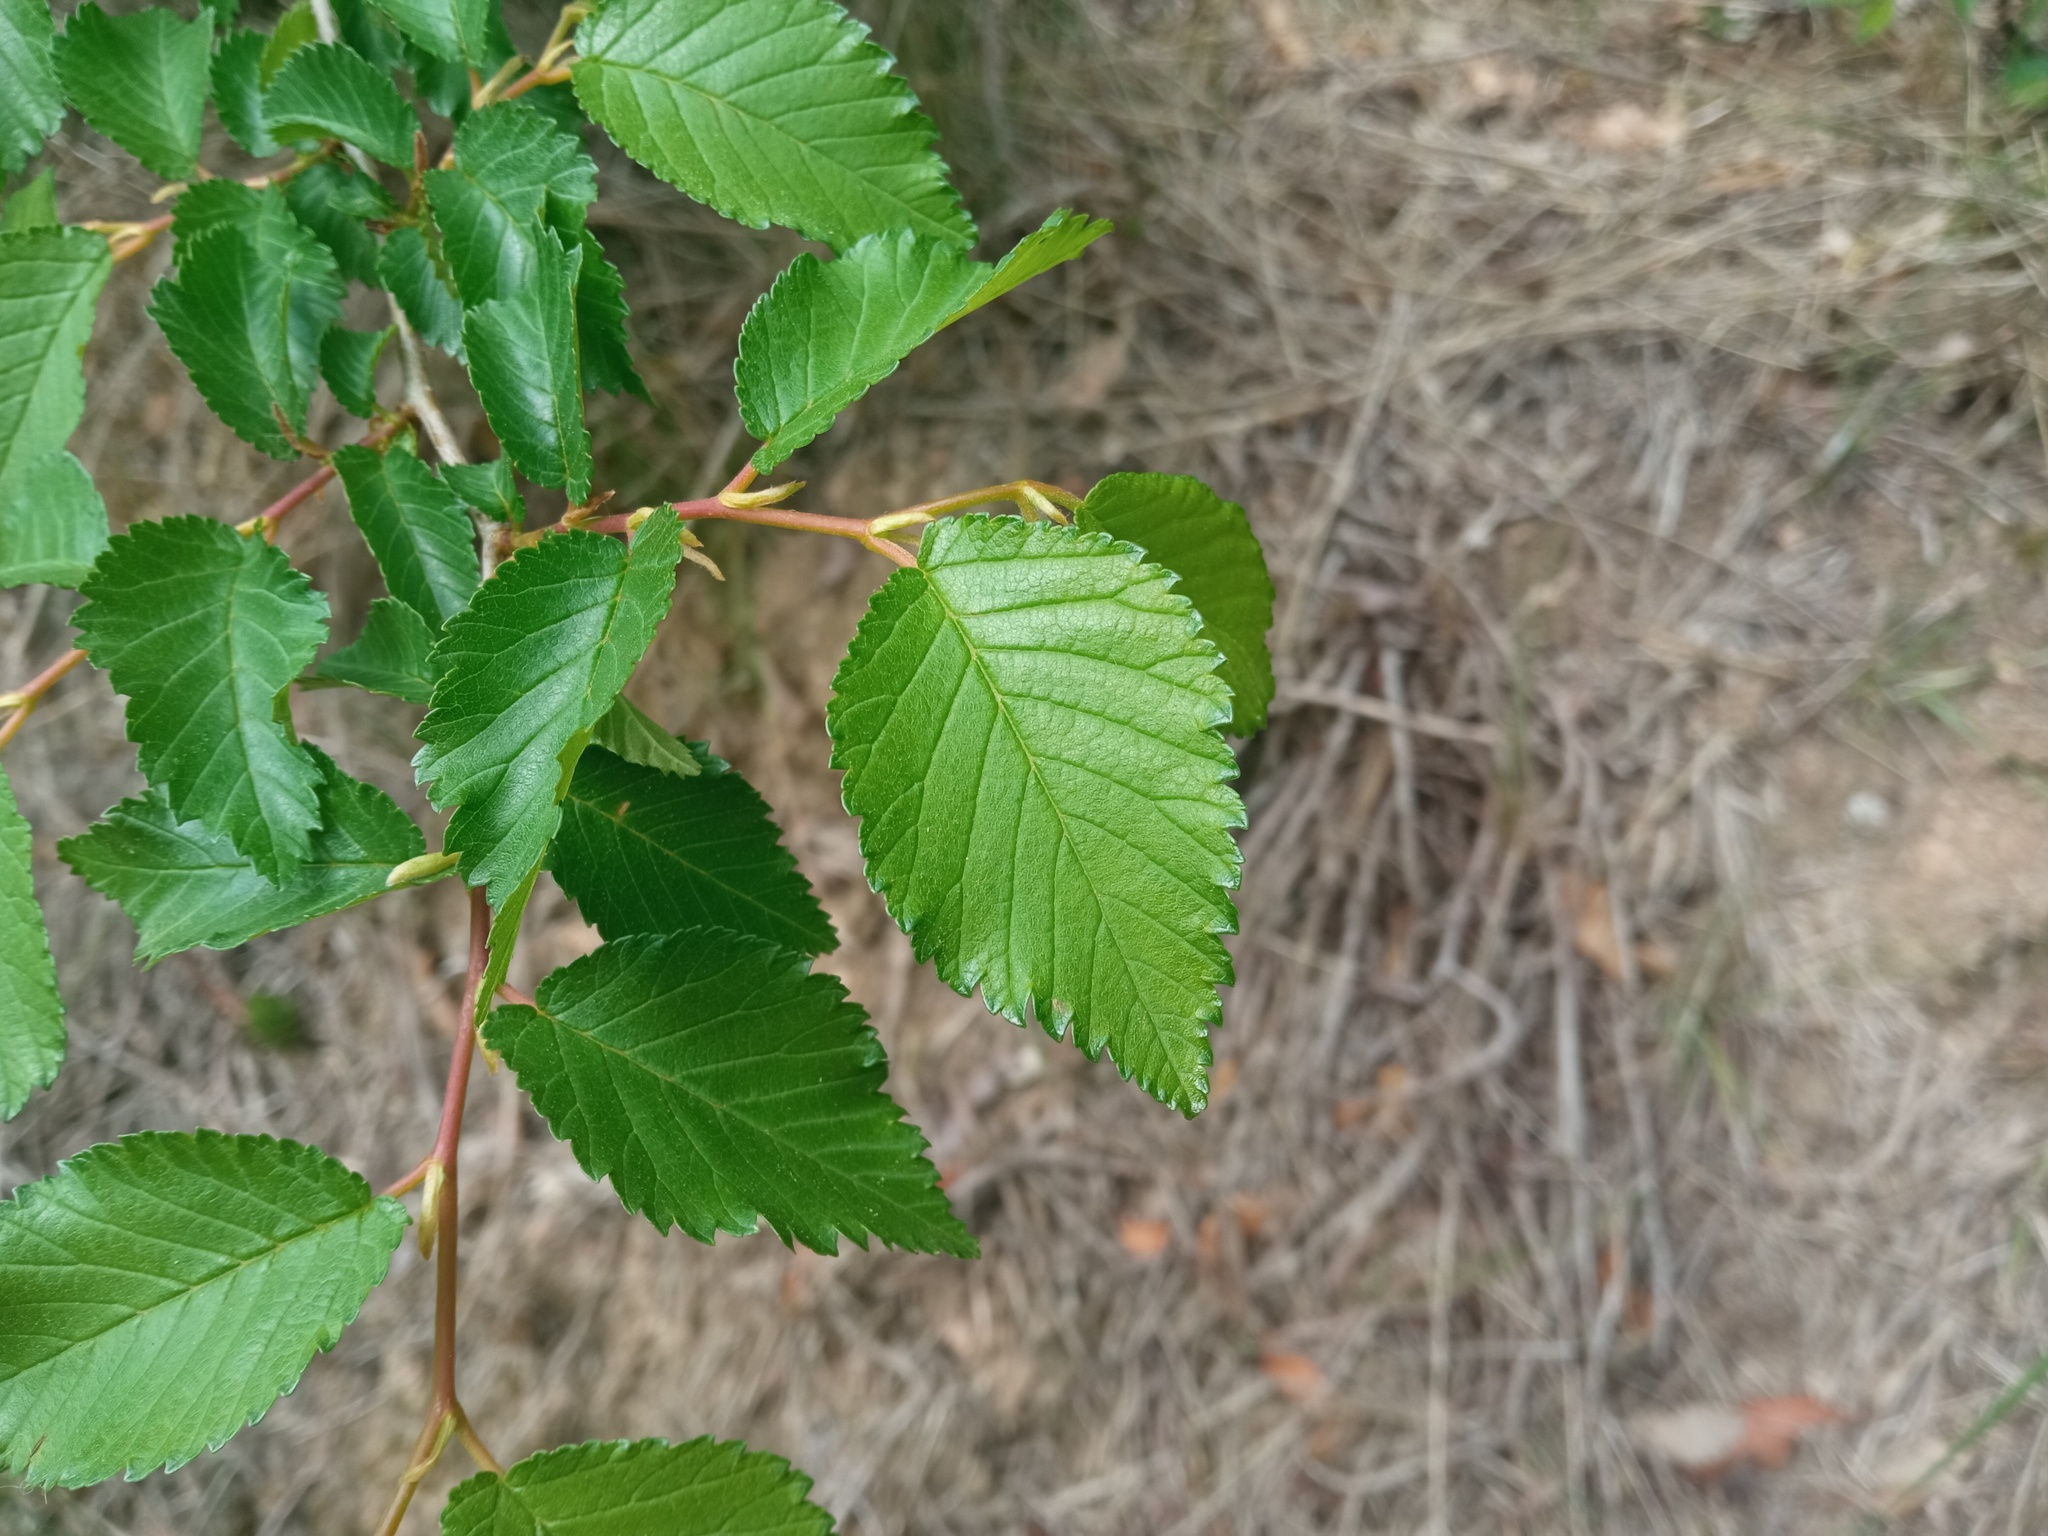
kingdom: Plantae
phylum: Tracheophyta
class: Magnoliopsida
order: Rosales
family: Ulmaceae
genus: Ulmus
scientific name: Ulmus minor
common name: Small-leaved elm
